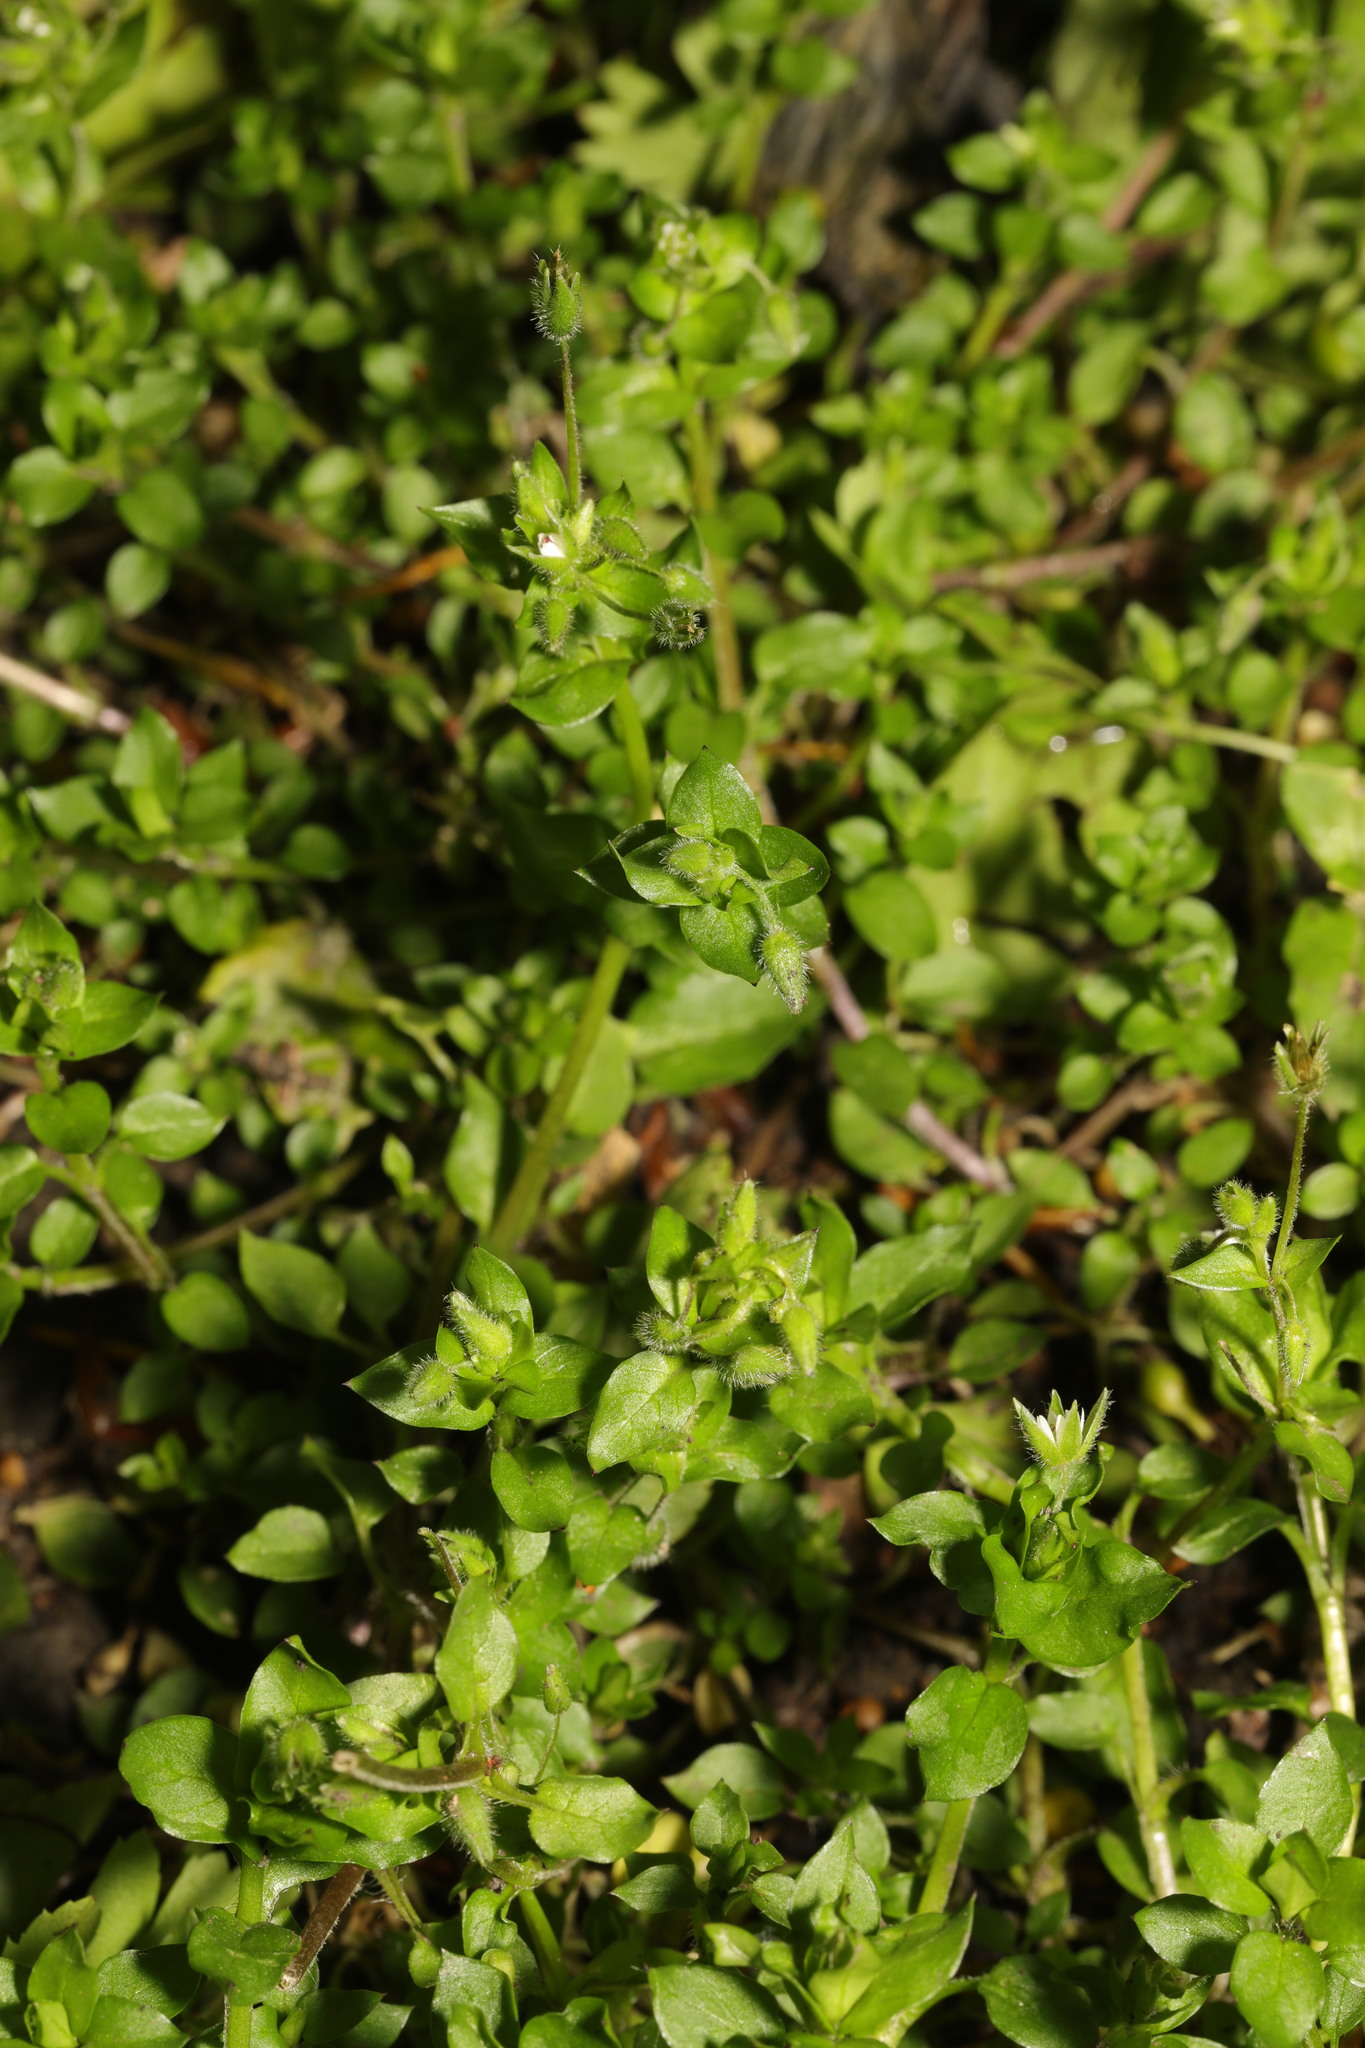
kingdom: Plantae
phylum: Tracheophyta
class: Magnoliopsida
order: Caryophyllales
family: Caryophyllaceae
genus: Stellaria
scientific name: Stellaria media
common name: Common chickweed
